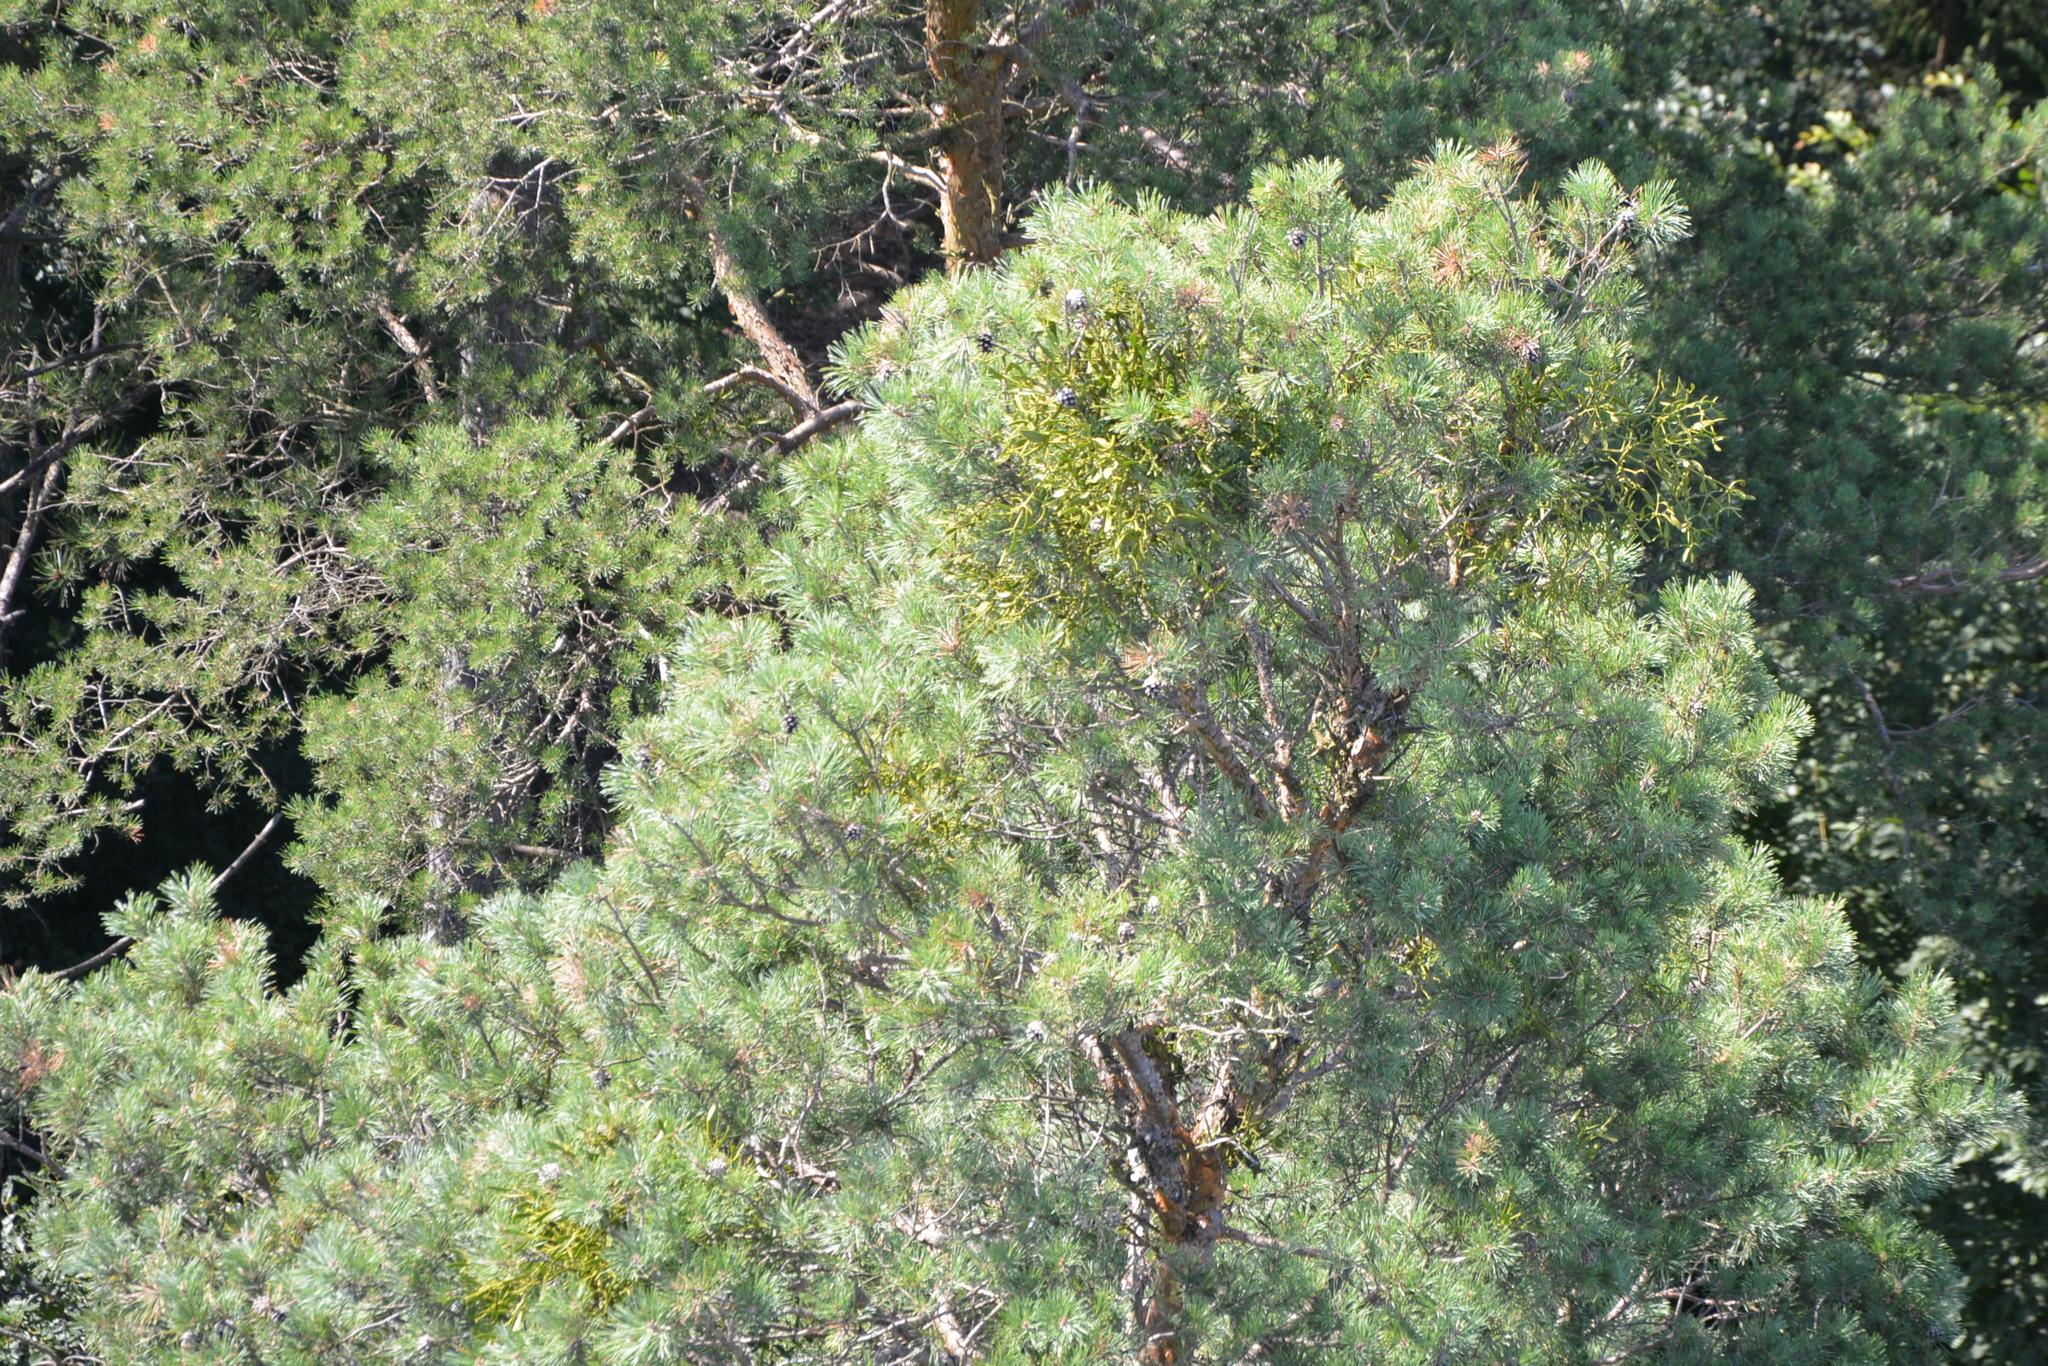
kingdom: Plantae
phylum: Tracheophyta
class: Magnoliopsida
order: Santalales
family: Viscaceae
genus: Viscum
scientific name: Viscum laxum
